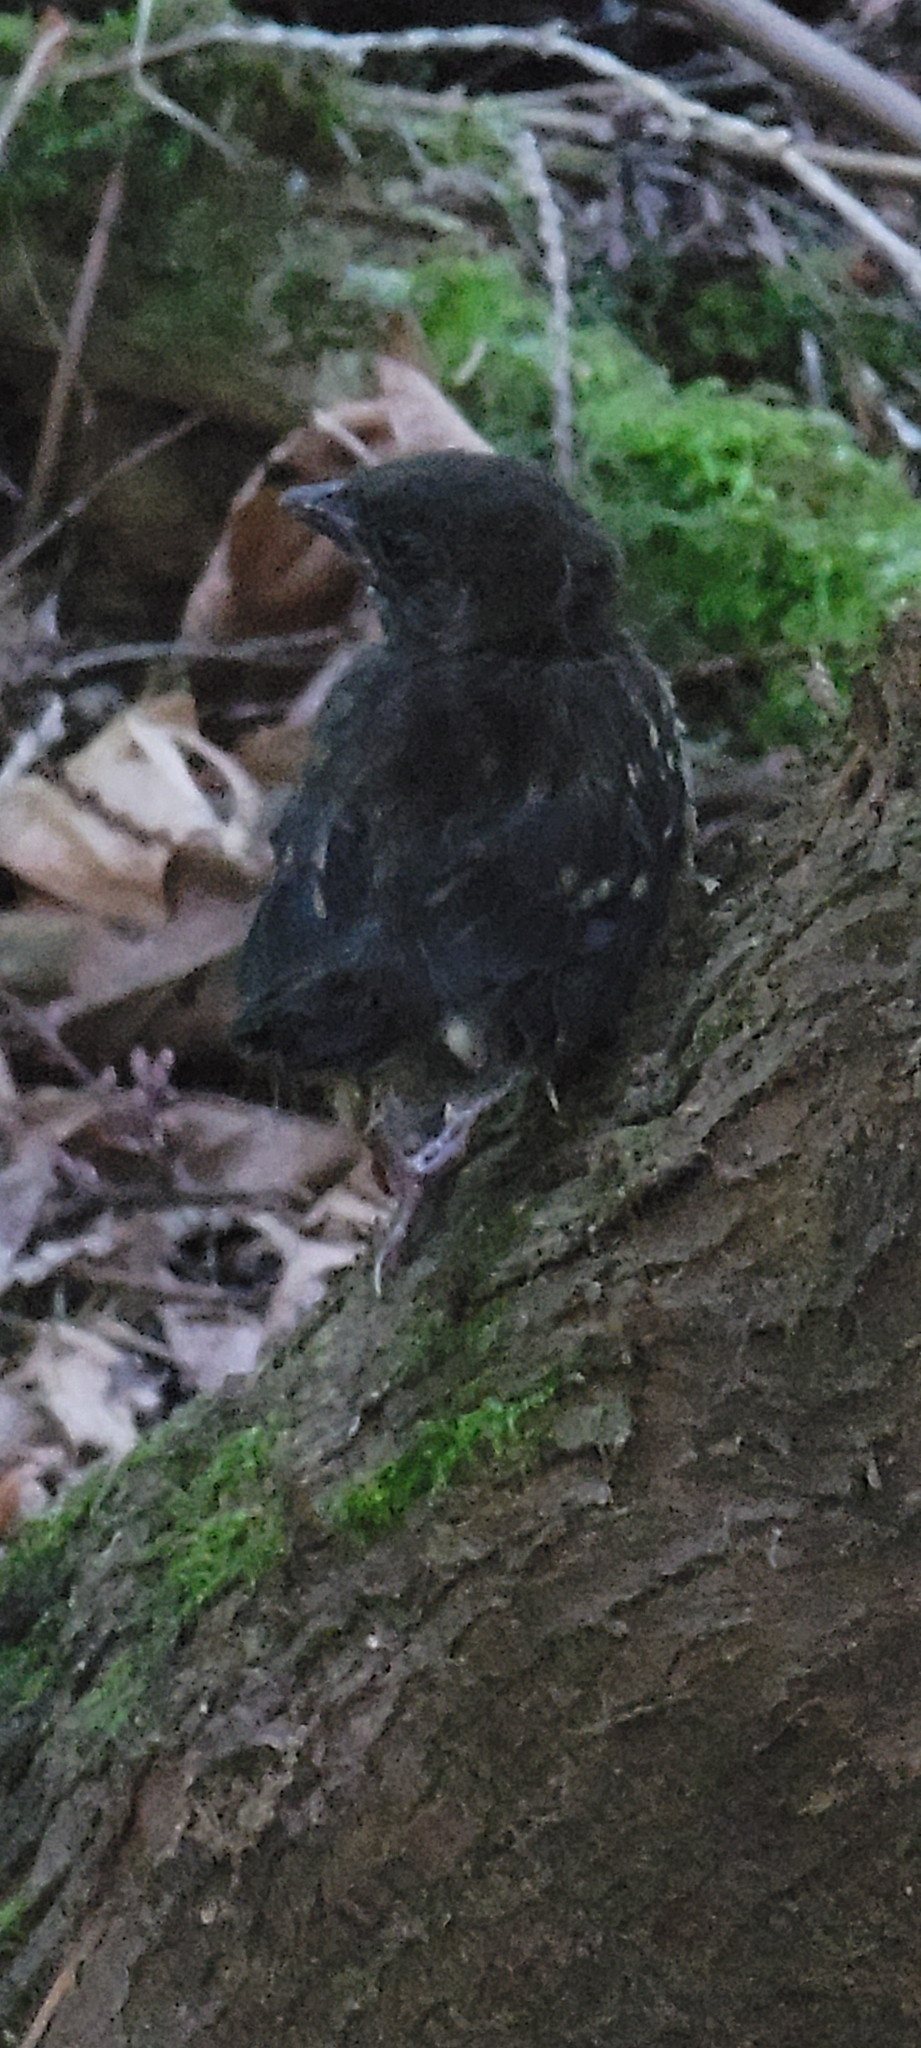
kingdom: Animalia
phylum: Chordata
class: Aves
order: Passeriformes
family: Passerellidae
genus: Pipilo
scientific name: Pipilo maculatus
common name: Spotted towhee
